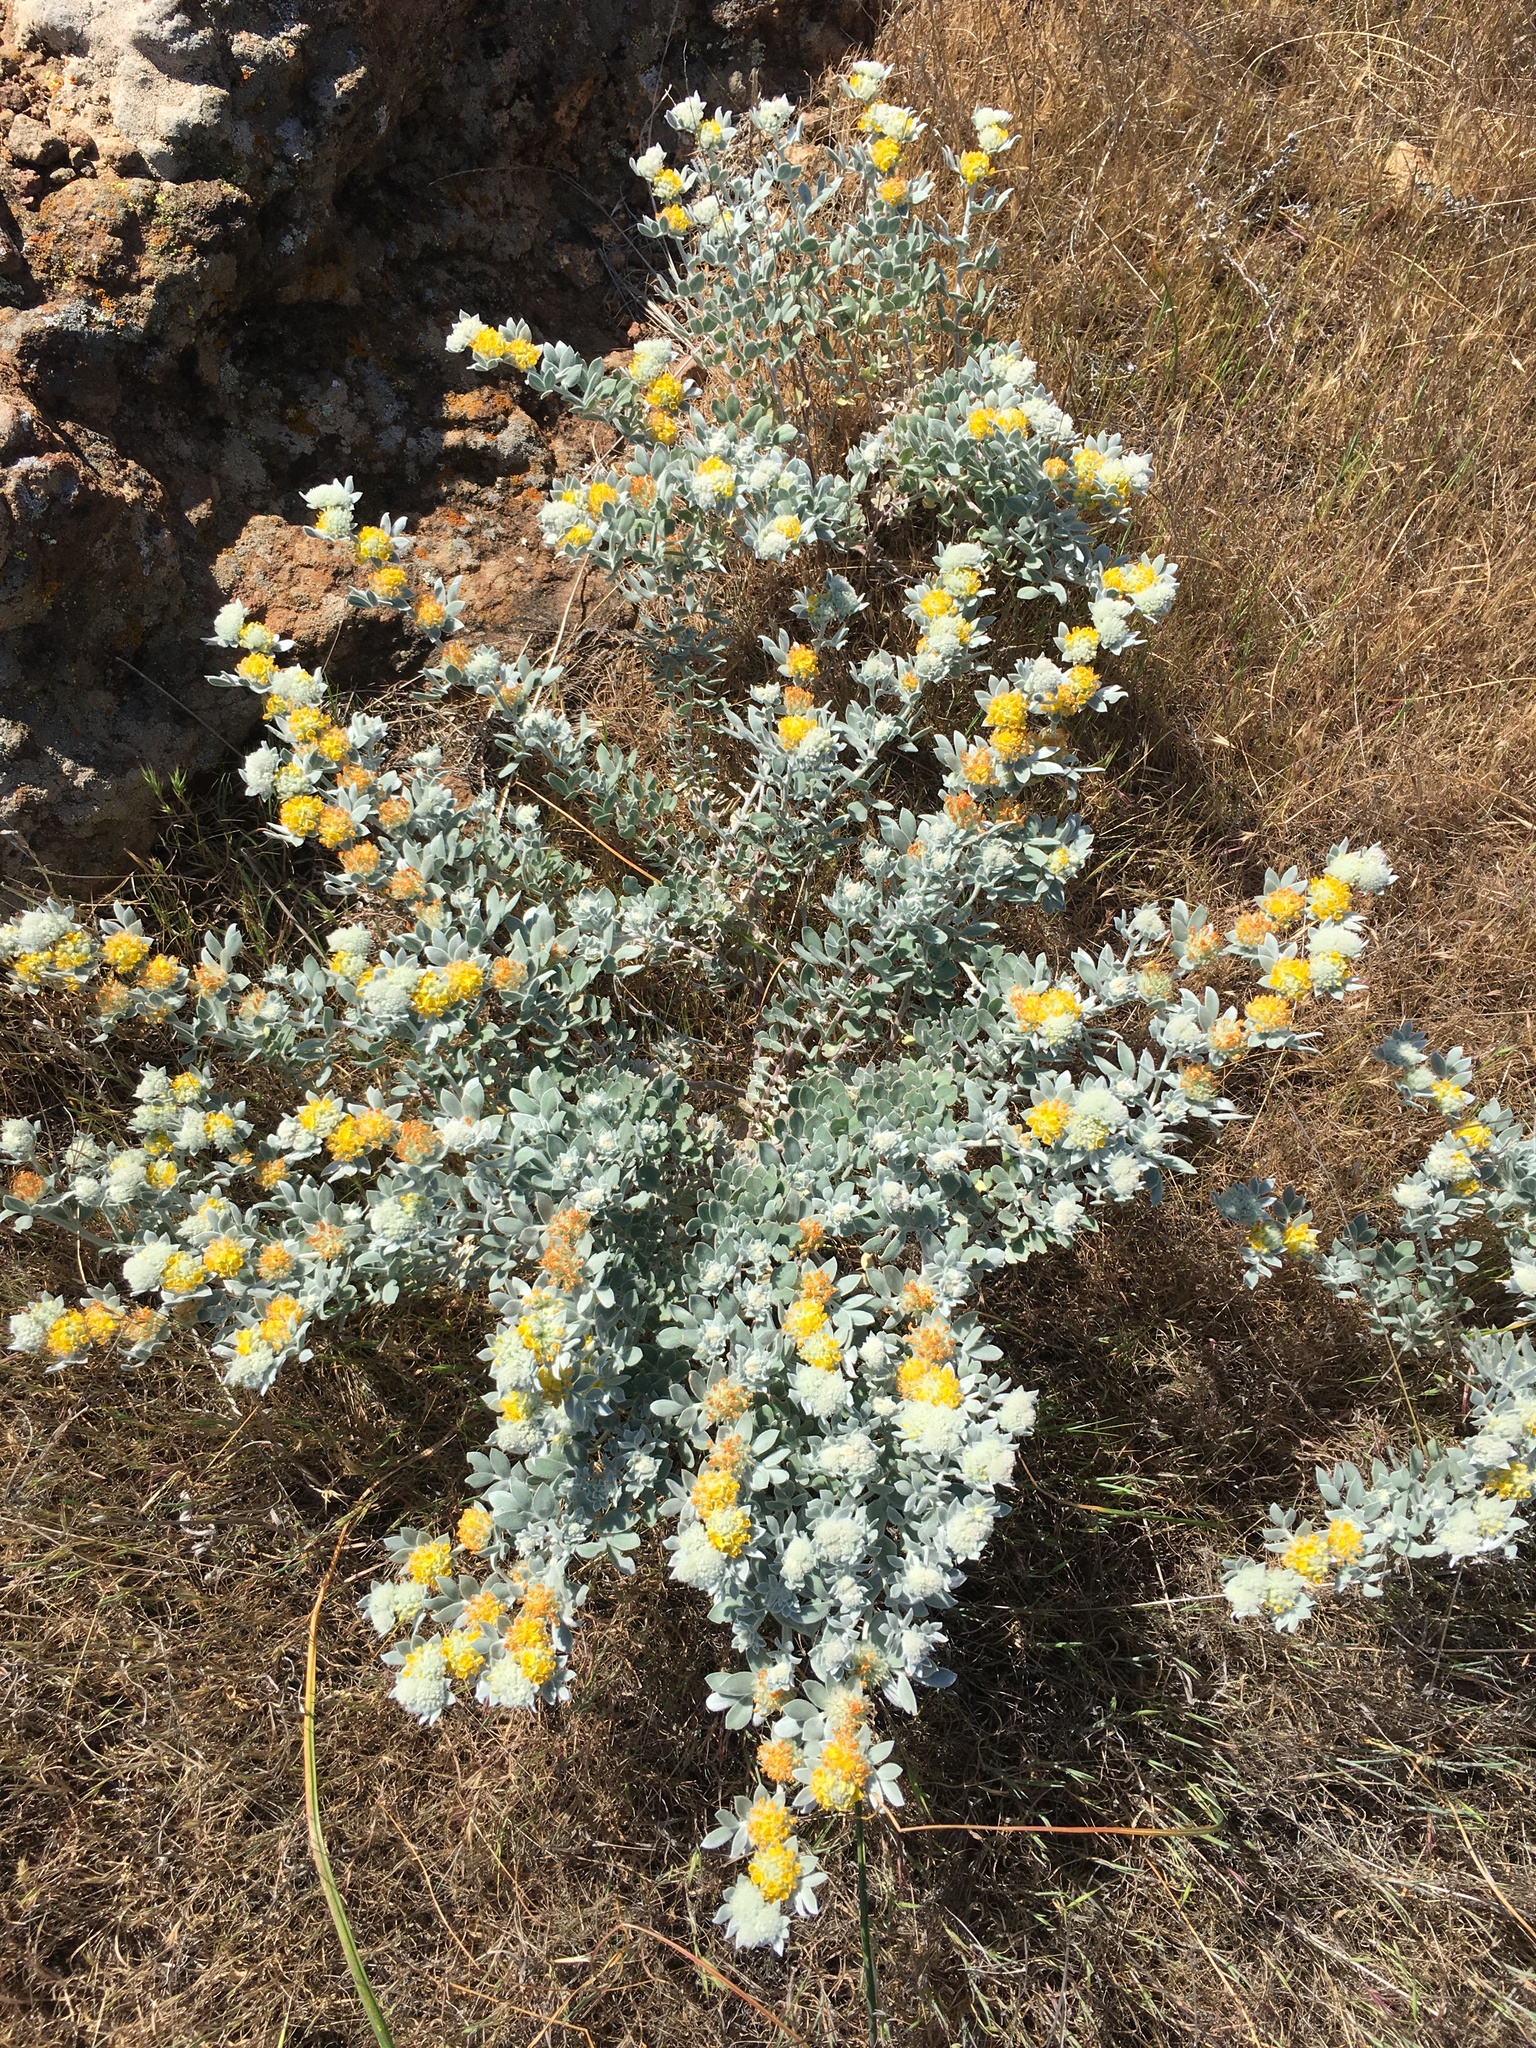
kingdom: Plantae
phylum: Tracheophyta
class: Magnoliopsida
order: Fabales
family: Fabaceae
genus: Acmispon
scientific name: Acmispon argophyllus
